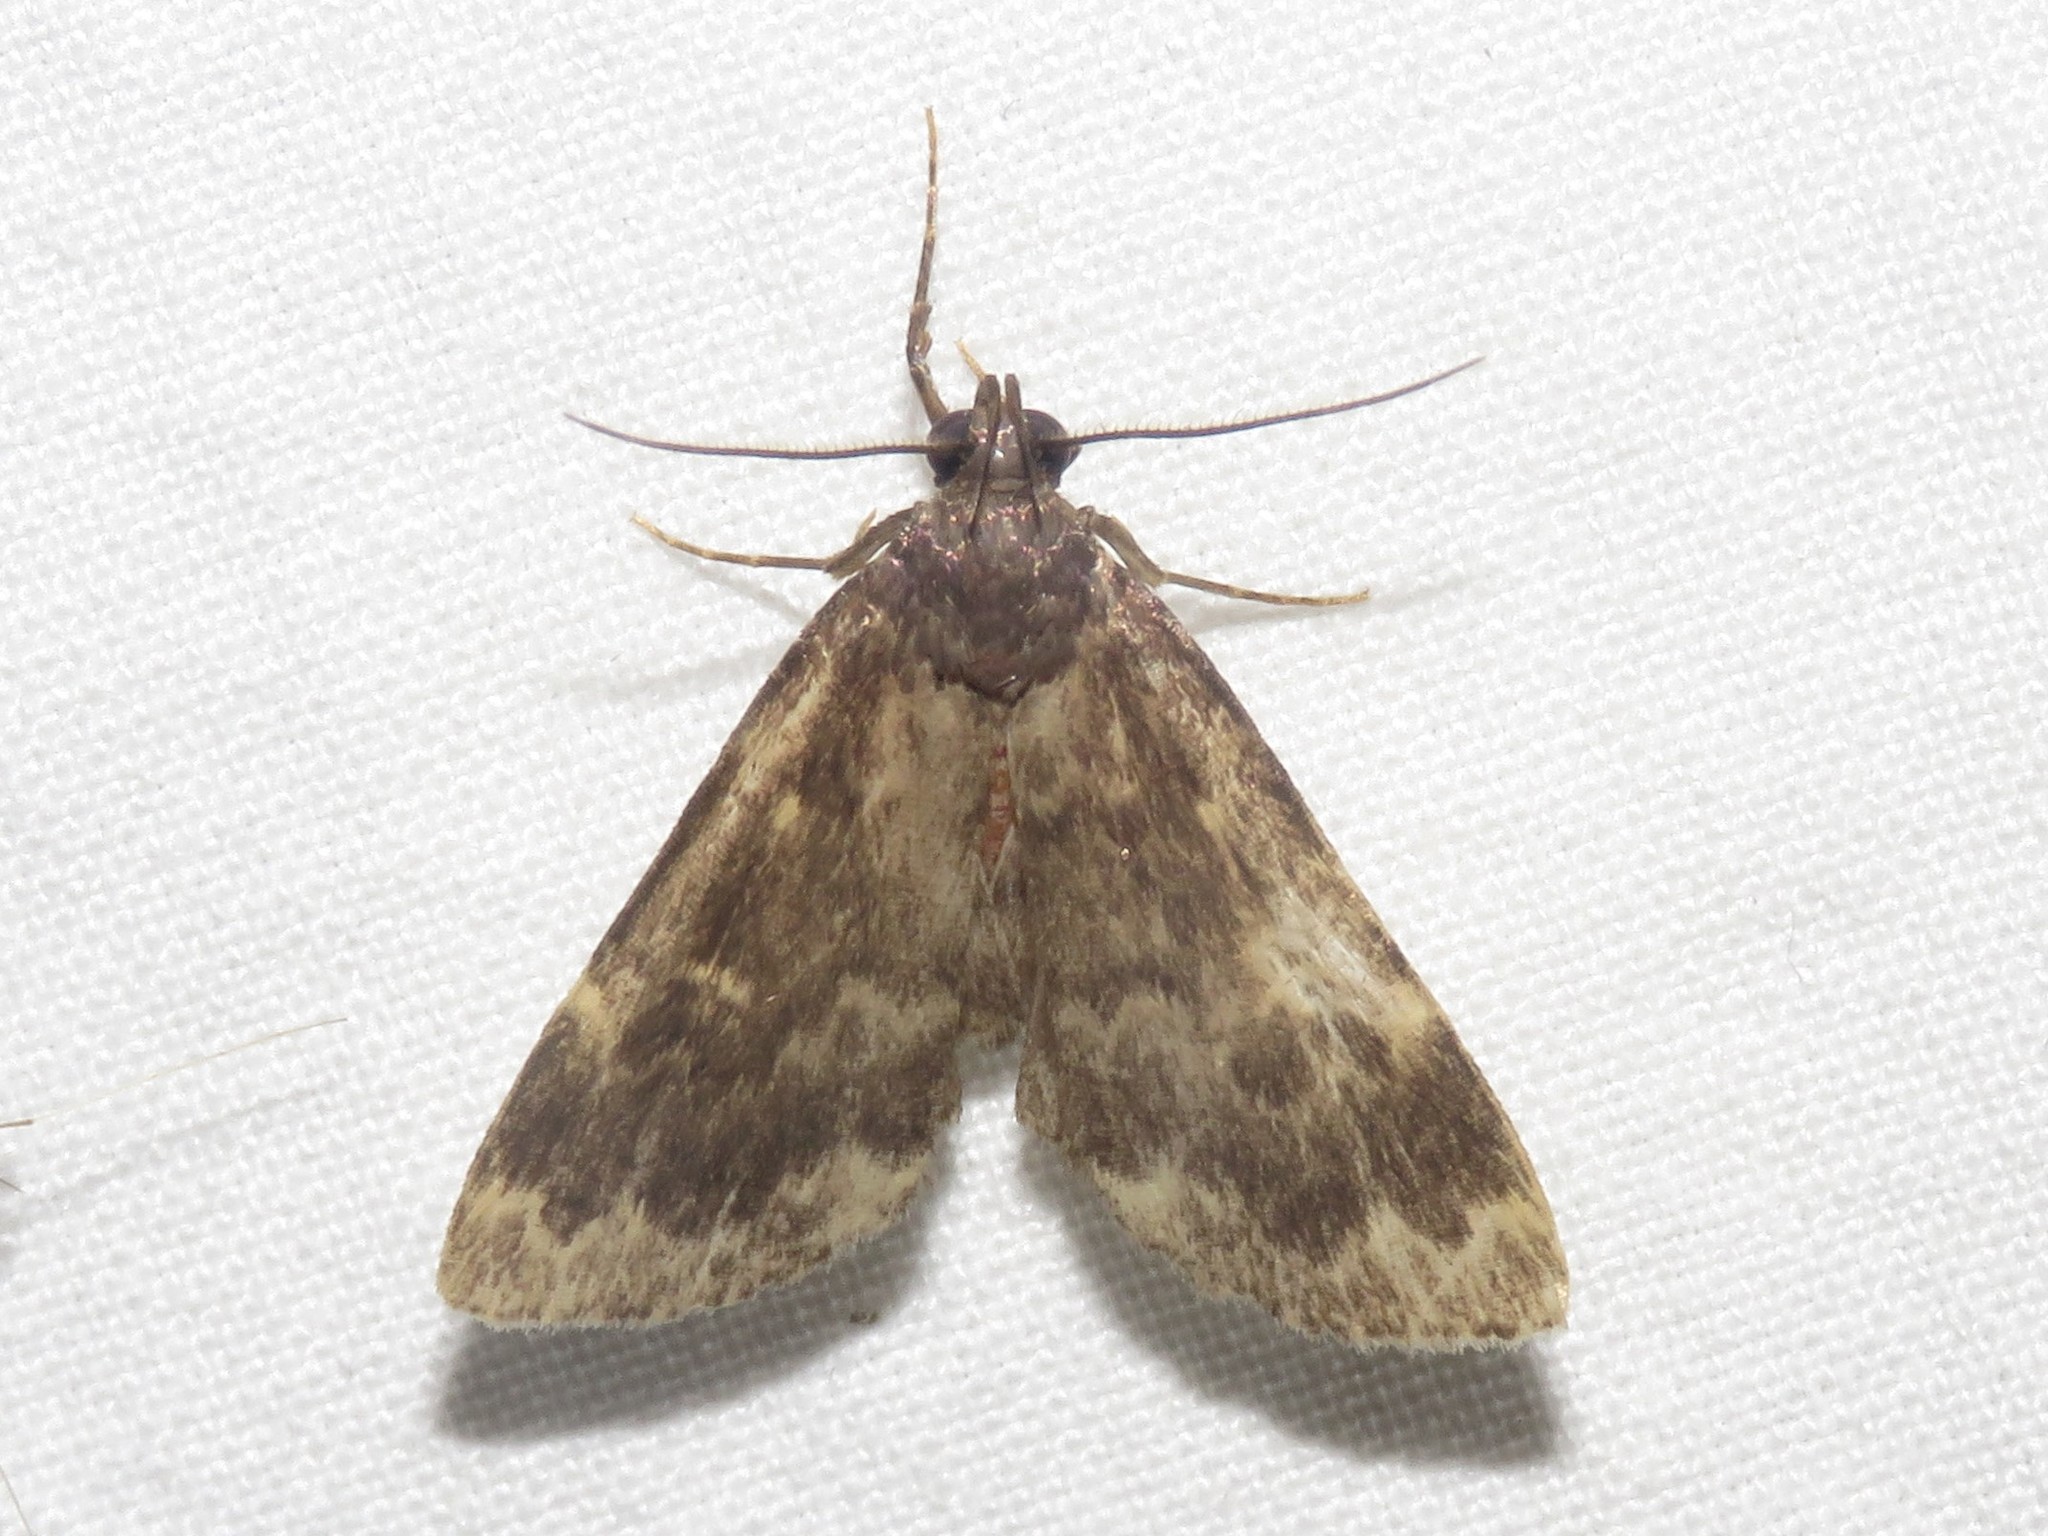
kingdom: Animalia
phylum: Arthropoda
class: Insecta
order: Lepidoptera
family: Erebidae
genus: Idia
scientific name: Idia lubricalis
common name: Twin-striped tabby
